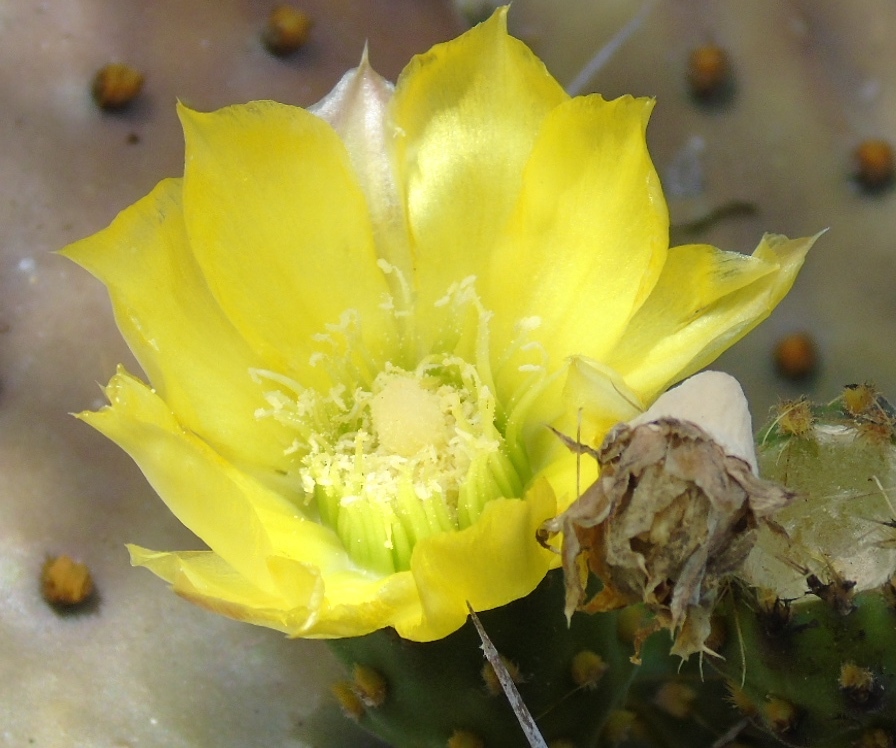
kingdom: Plantae
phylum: Tracheophyta
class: Magnoliopsida
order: Caryophyllales
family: Cactaceae
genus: Opuntia
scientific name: Opuntia decumbens
